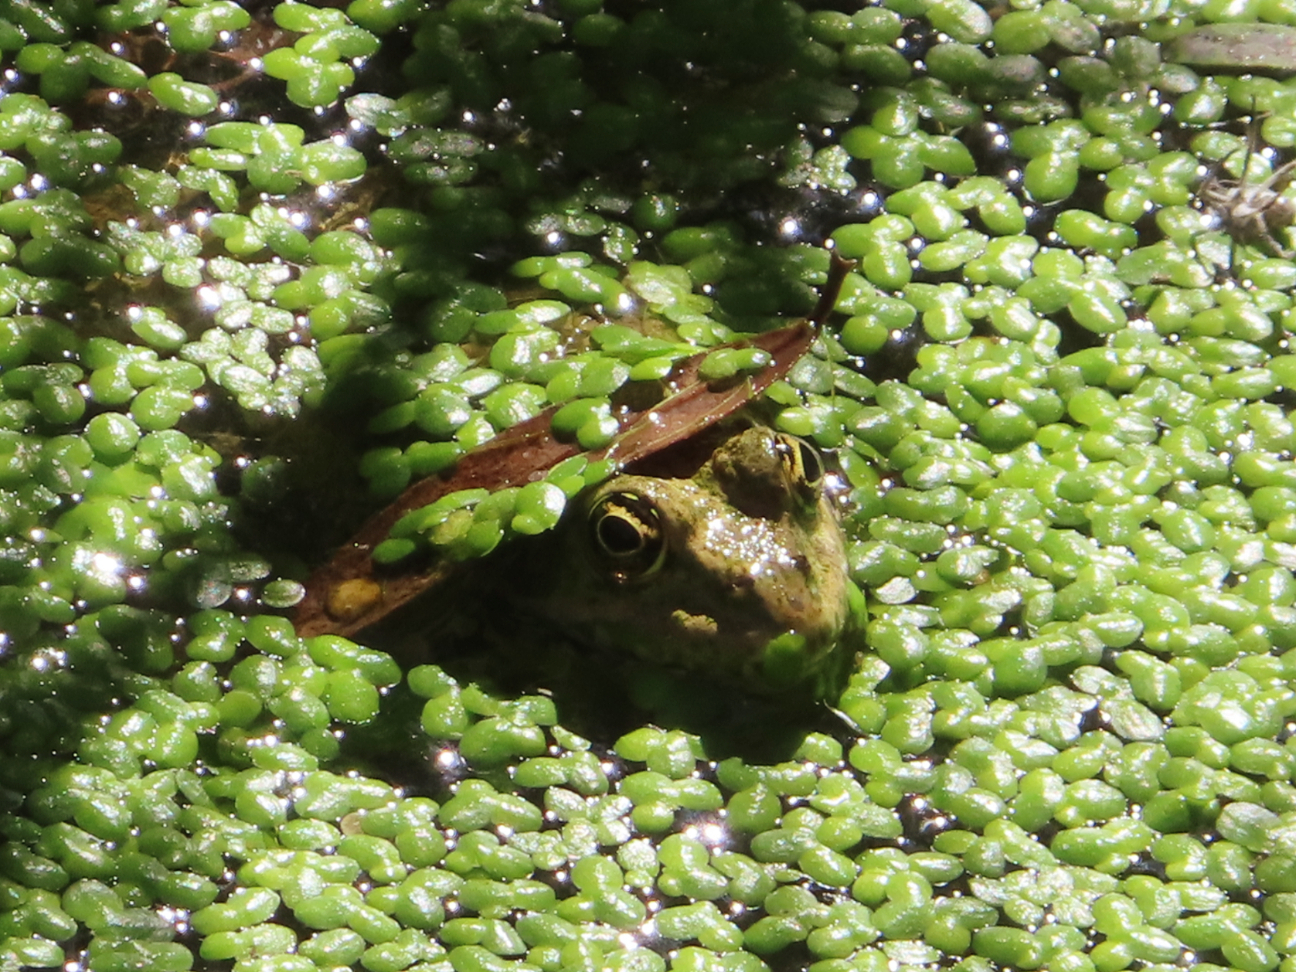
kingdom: Animalia
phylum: Chordata
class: Amphibia
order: Anura
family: Ranidae
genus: Pelophylax
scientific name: Pelophylax ridibundus
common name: Marsh frog
